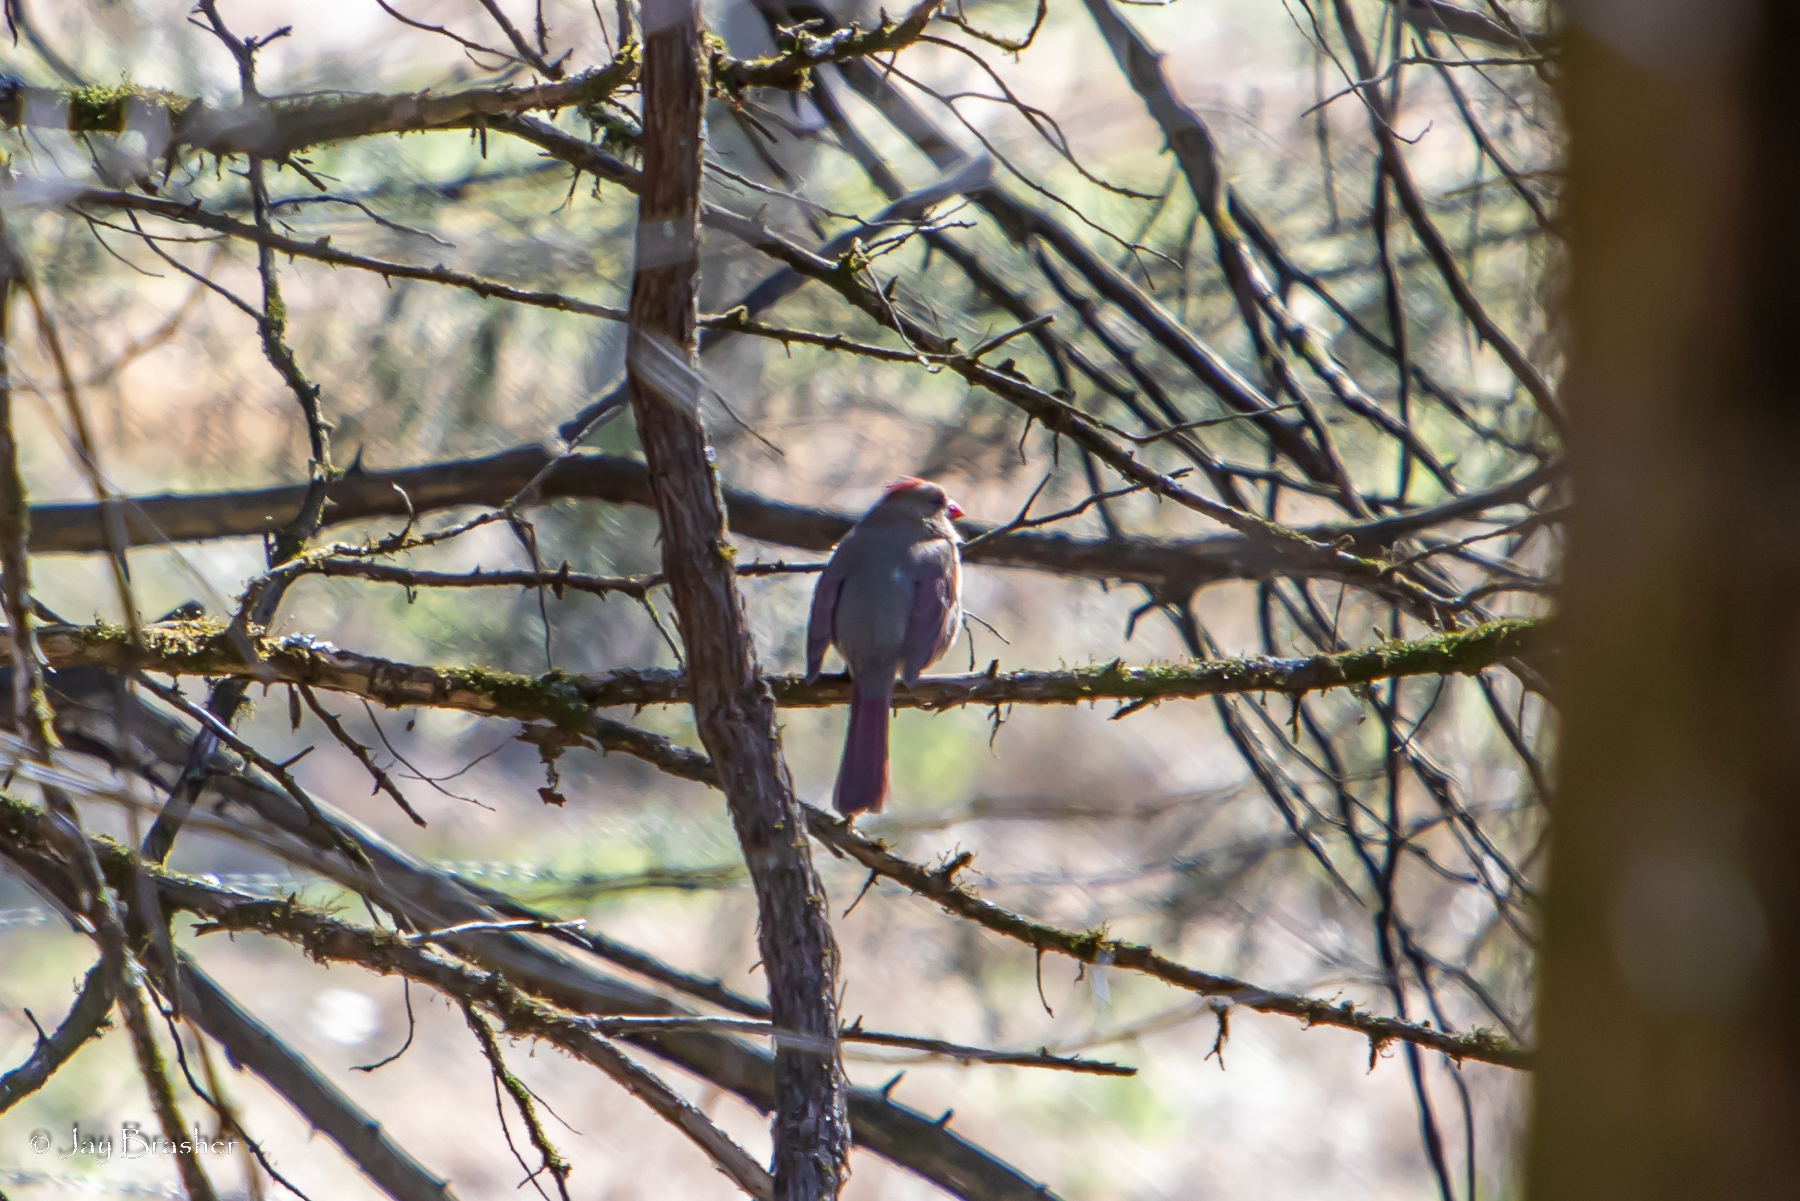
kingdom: Animalia
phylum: Chordata
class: Aves
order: Passeriformes
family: Cardinalidae
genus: Cardinalis
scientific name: Cardinalis cardinalis
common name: Northern cardinal
